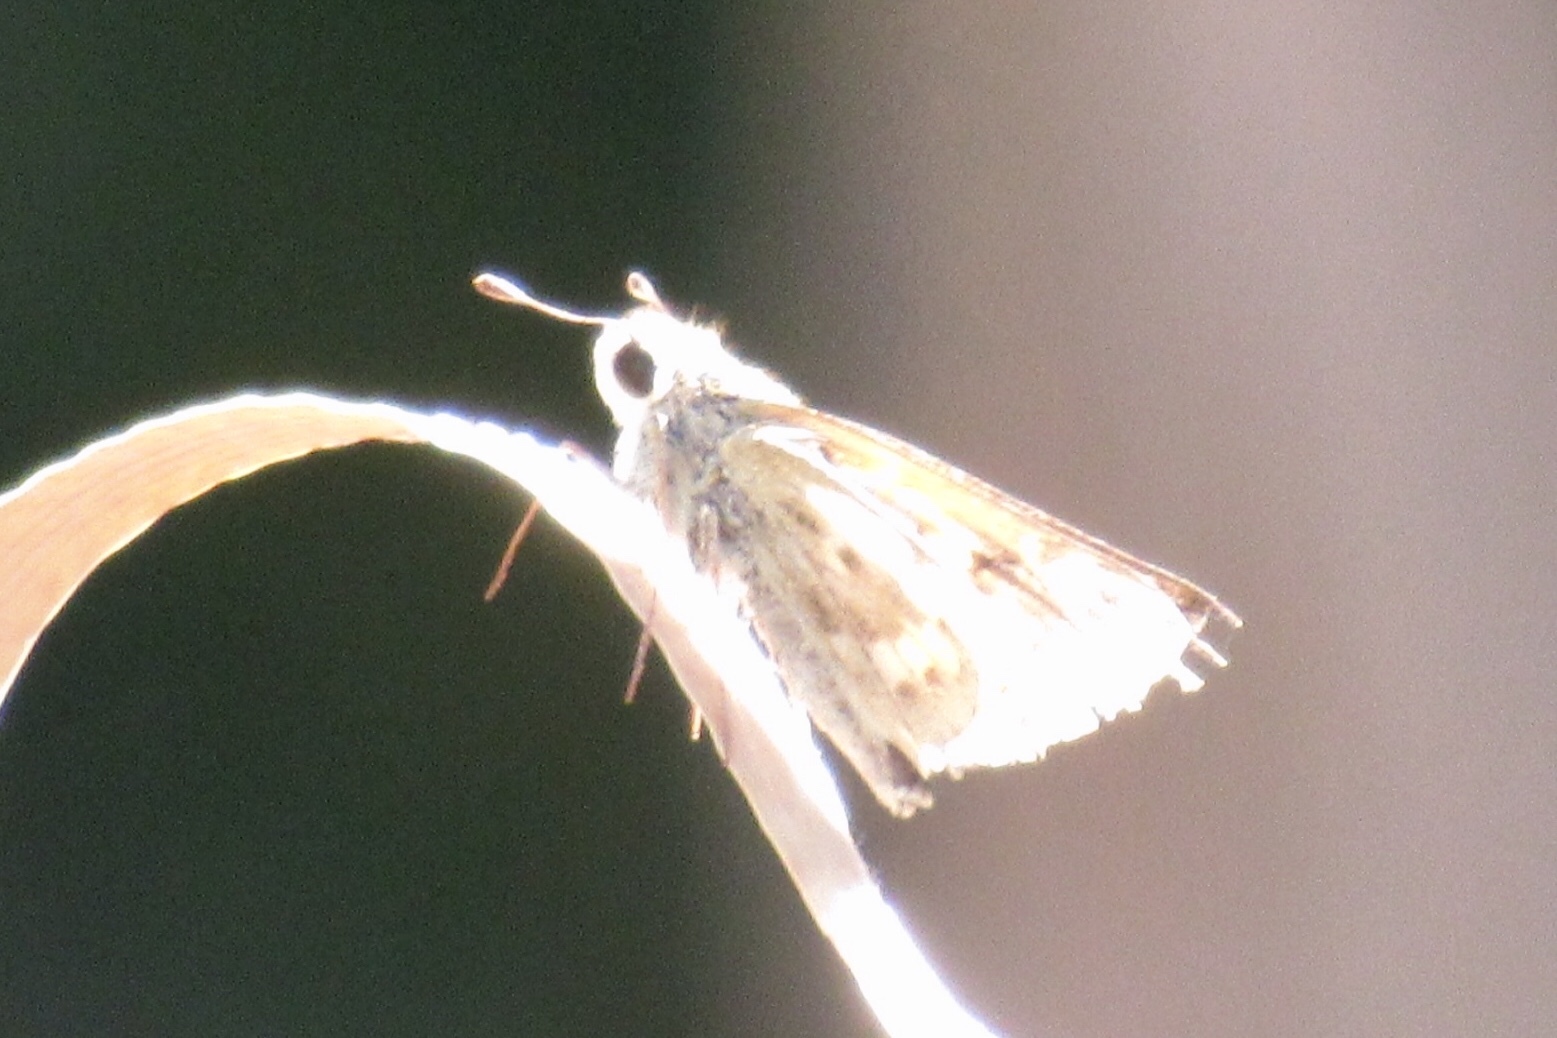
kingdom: Animalia
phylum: Arthropoda
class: Insecta
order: Lepidoptera
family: Hesperiidae
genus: Hylephila
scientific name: Hylephila phyleus
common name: Fiery skipper
